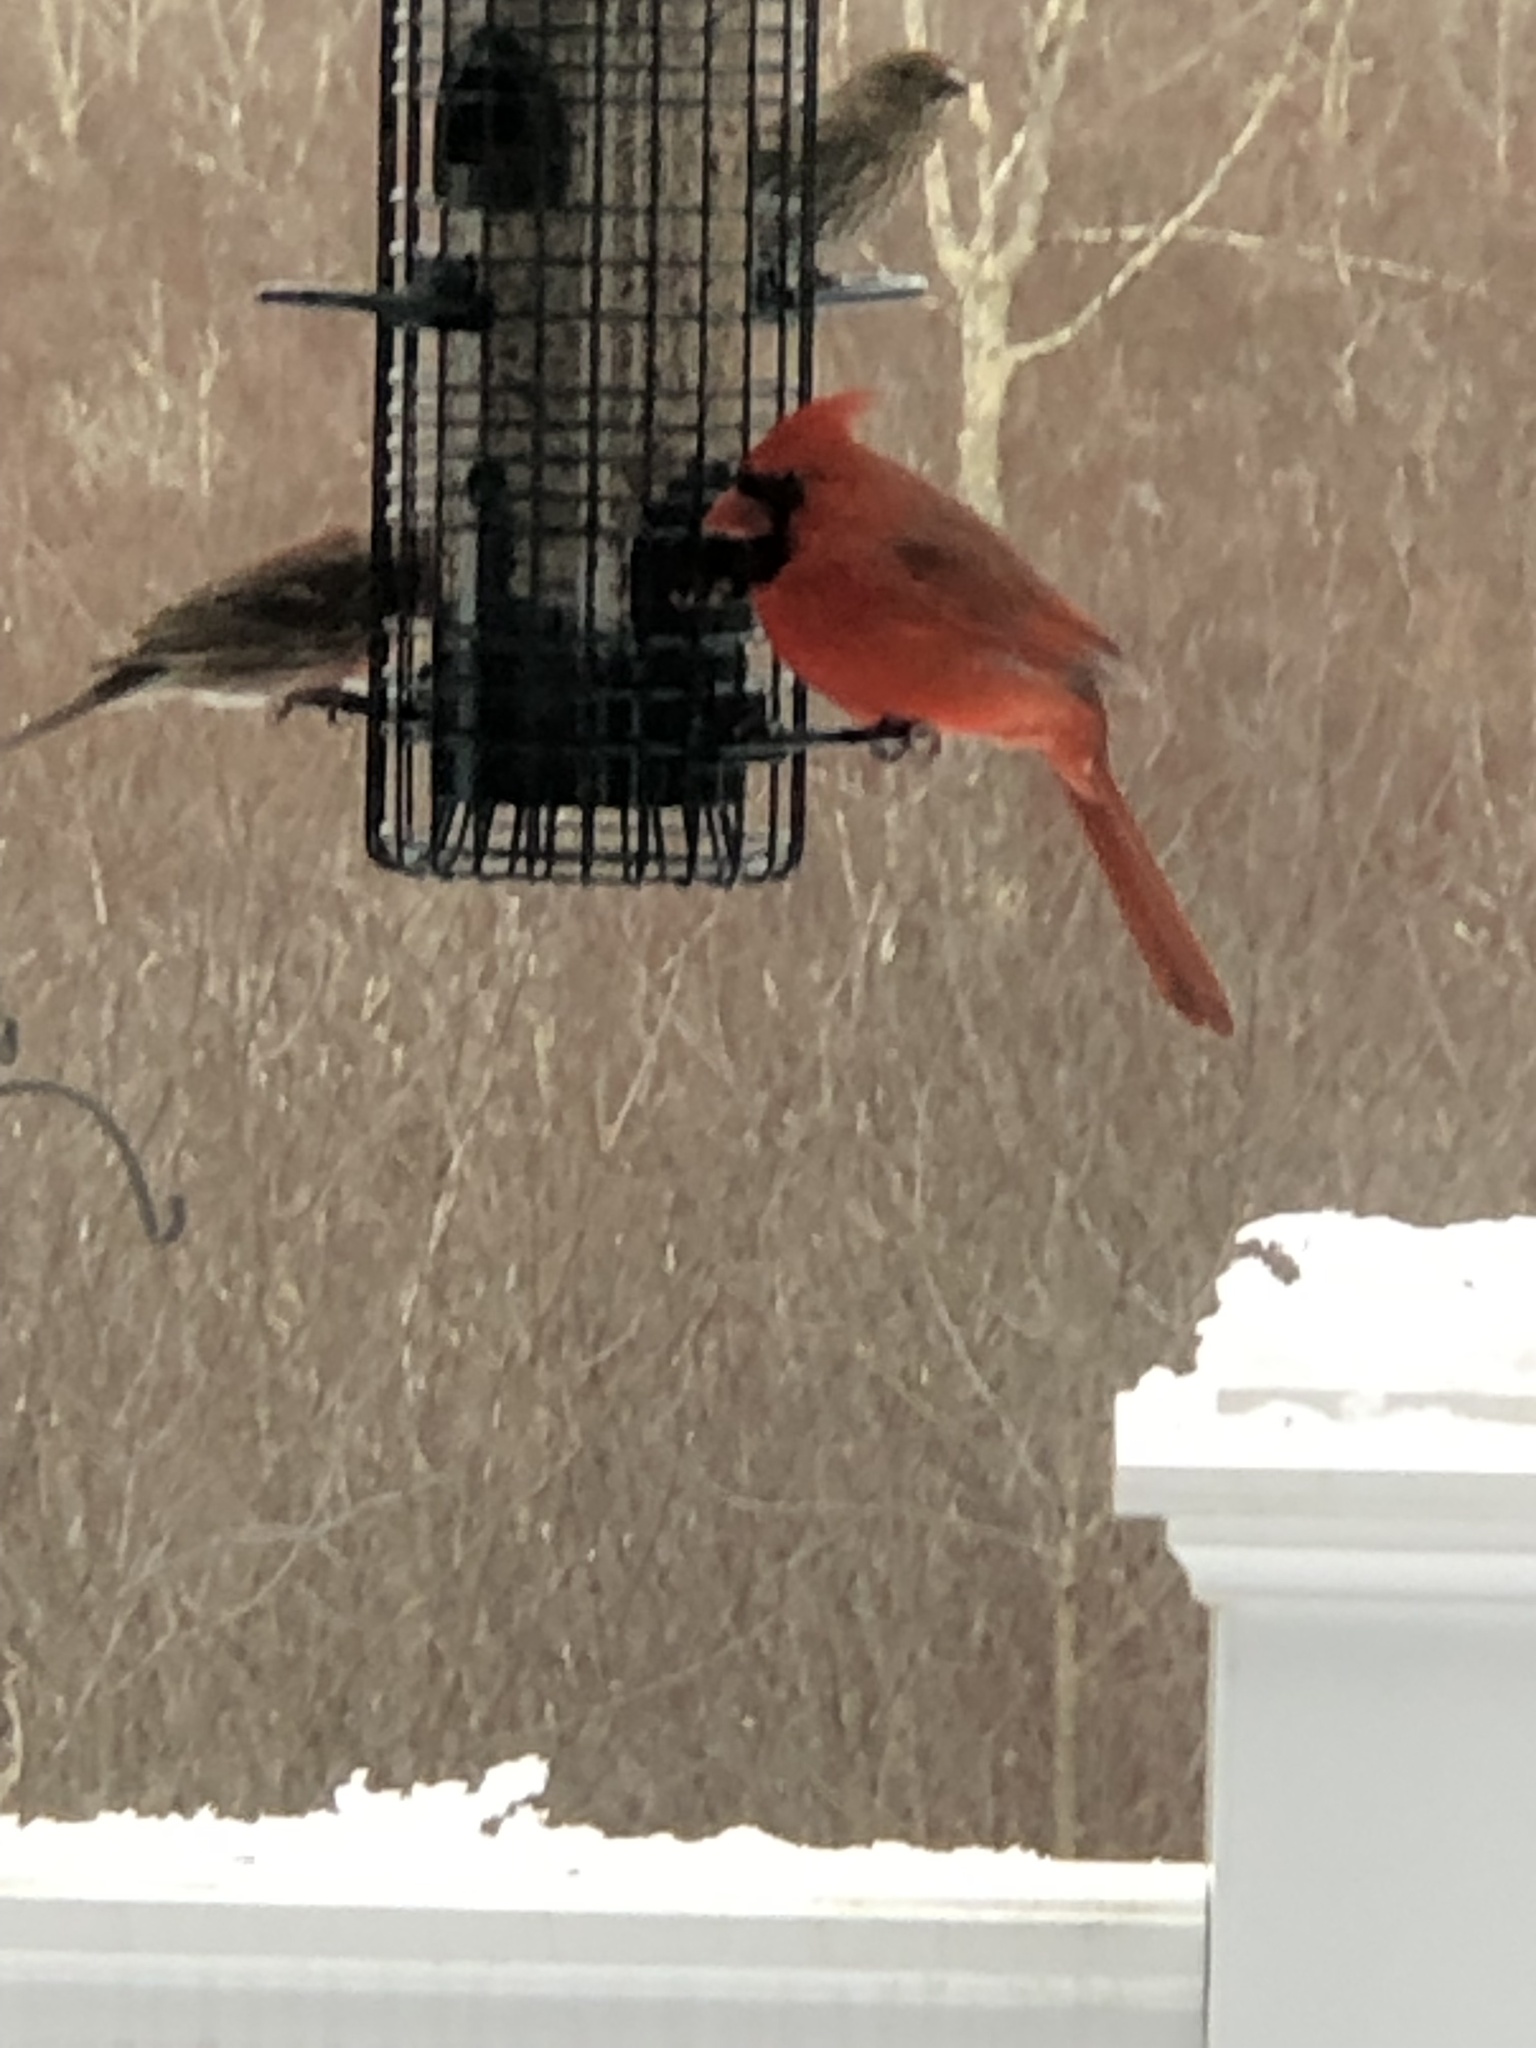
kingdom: Animalia
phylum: Chordata
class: Aves
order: Passeriformes
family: Cardinalidae
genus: Cardinalis
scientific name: Cardinalis cardinalis
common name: Northern cardinal
